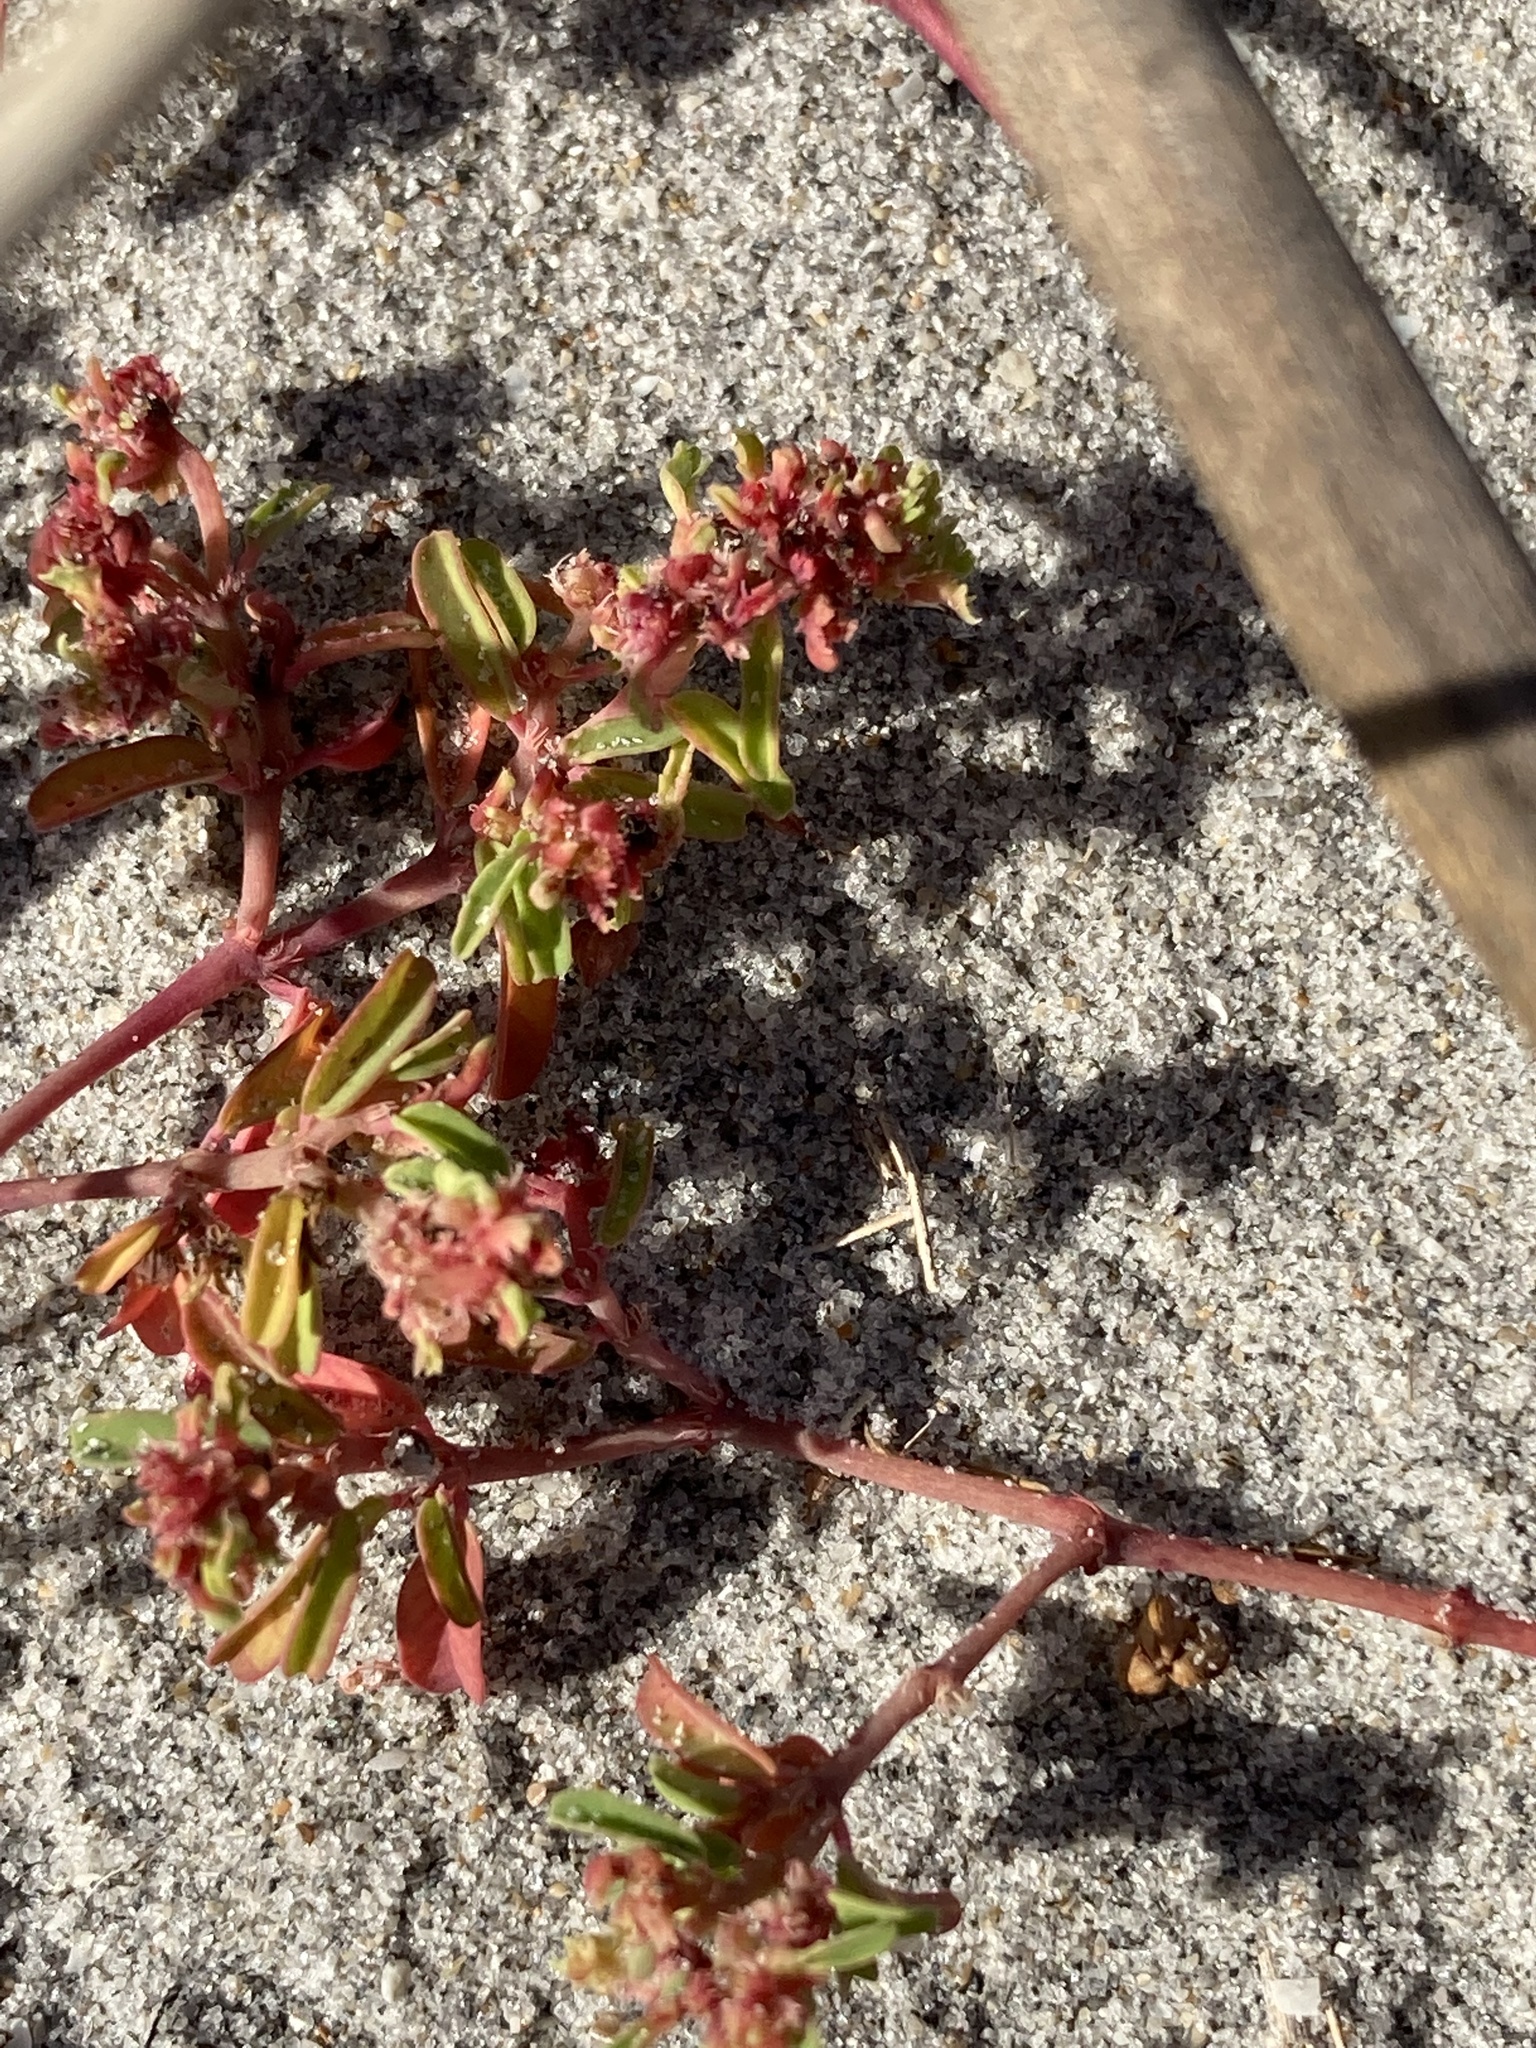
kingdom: Plantae
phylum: Tracheophyta
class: Magnoliopsida
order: Malpighiales
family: Euphorbiaceae
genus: Euphorbia
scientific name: Euphorbia bombensis
